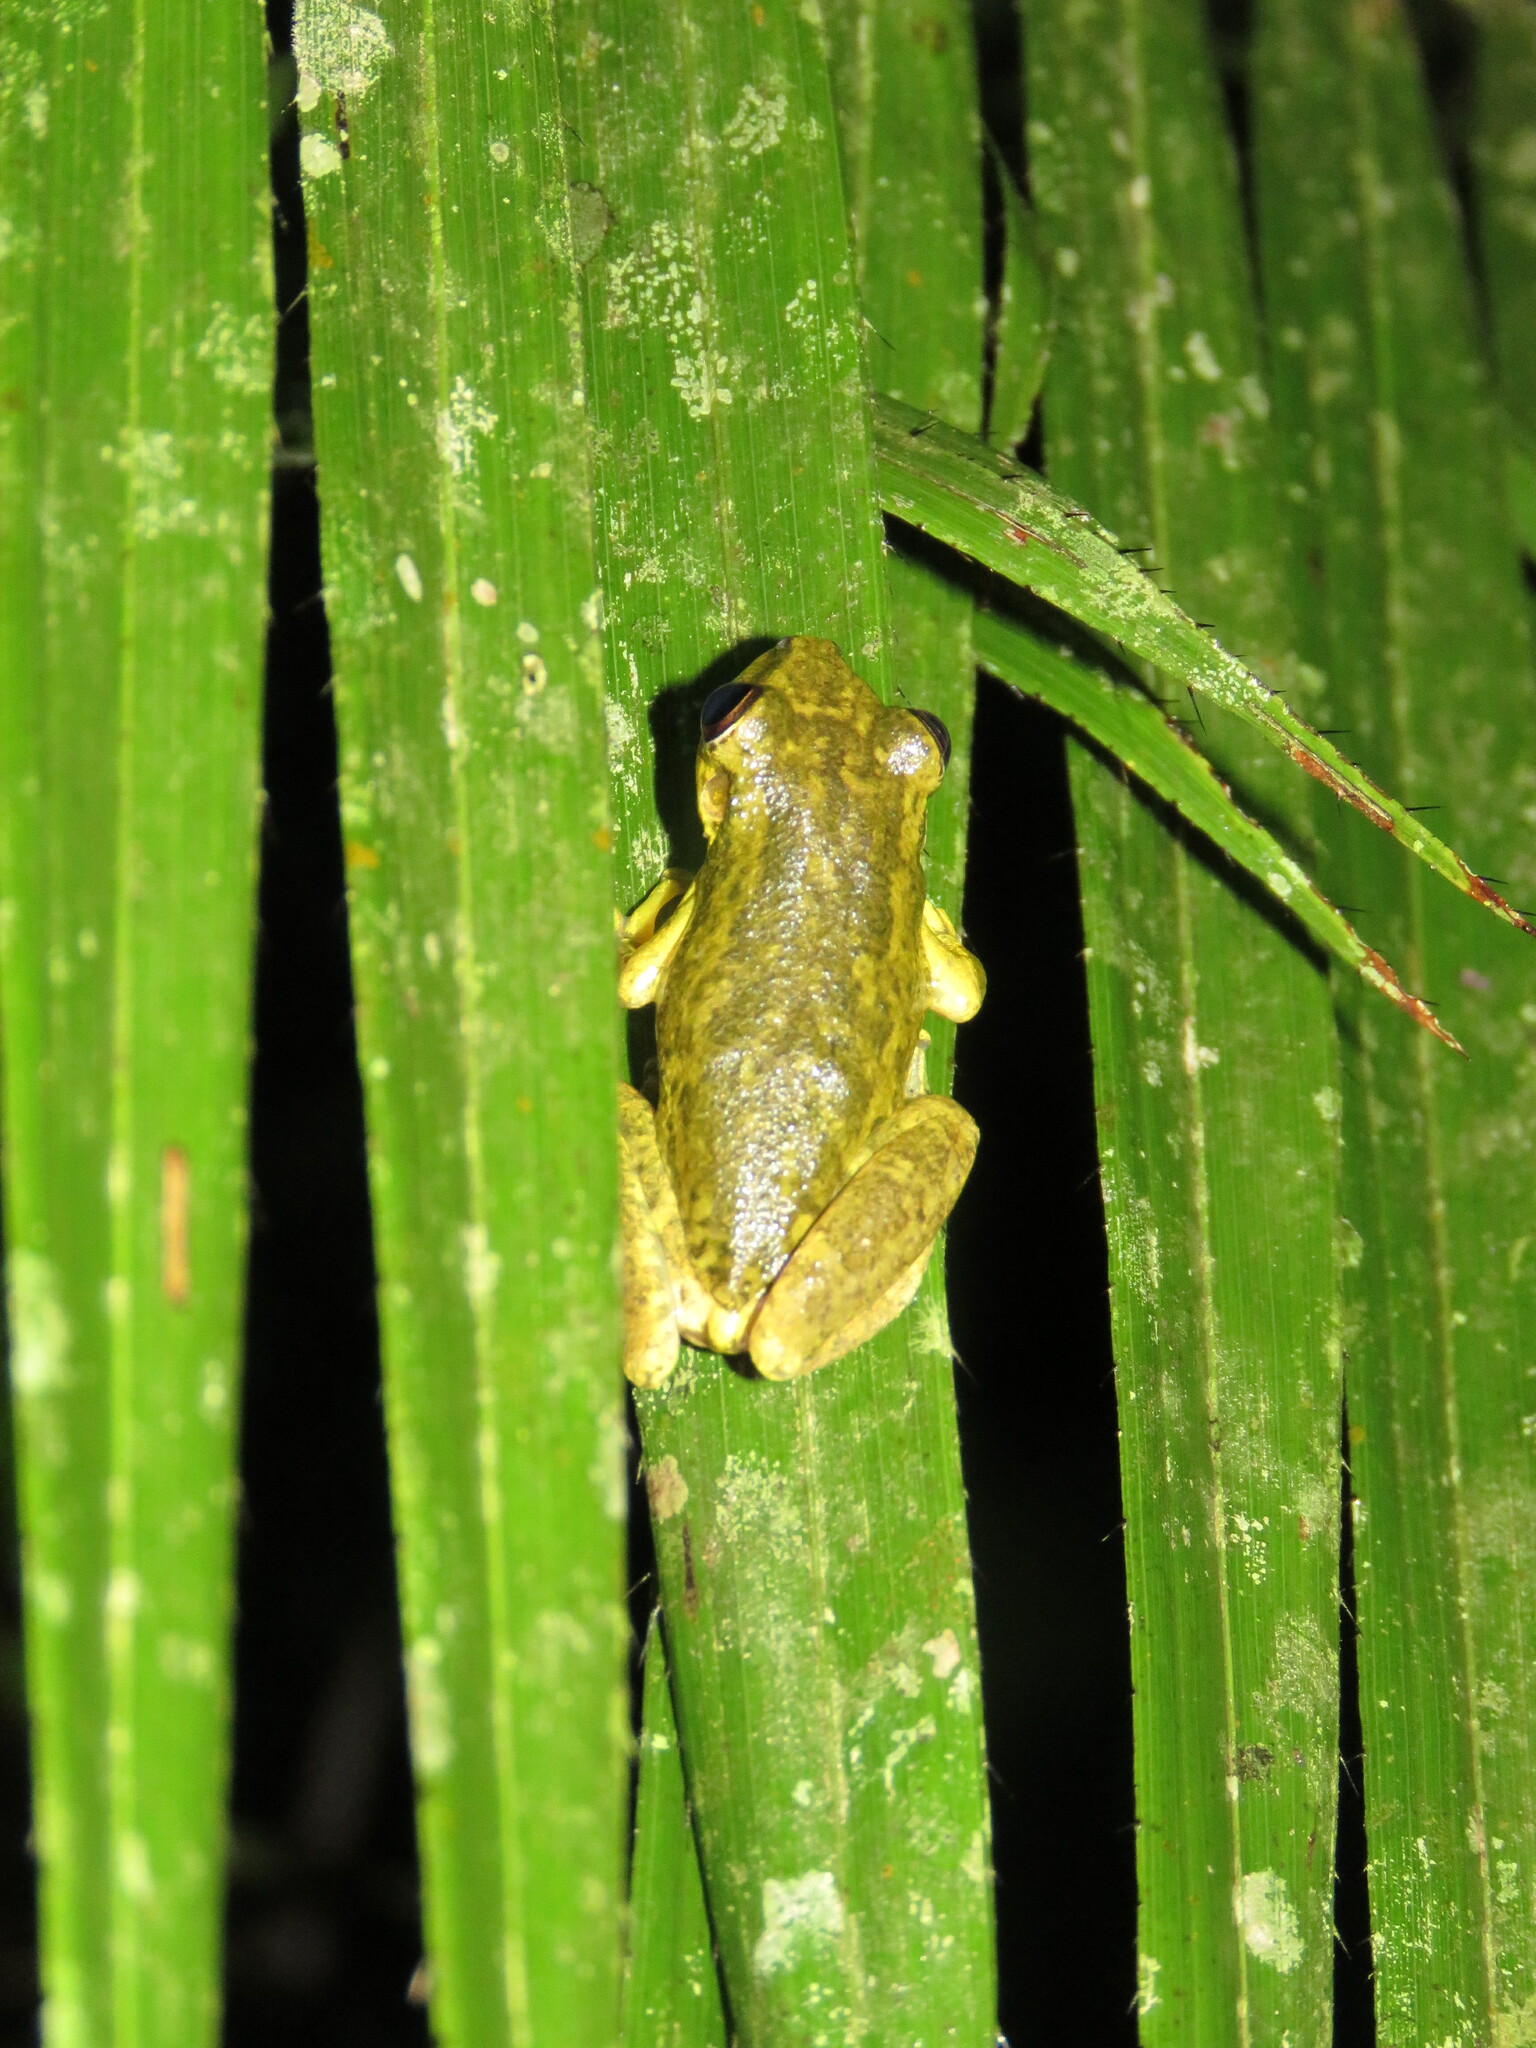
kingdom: Animalia
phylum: Chordata
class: Amphibia
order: Anura
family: Hylidae
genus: Scinax
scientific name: Scinax ruber
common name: Red snouted treefrog
